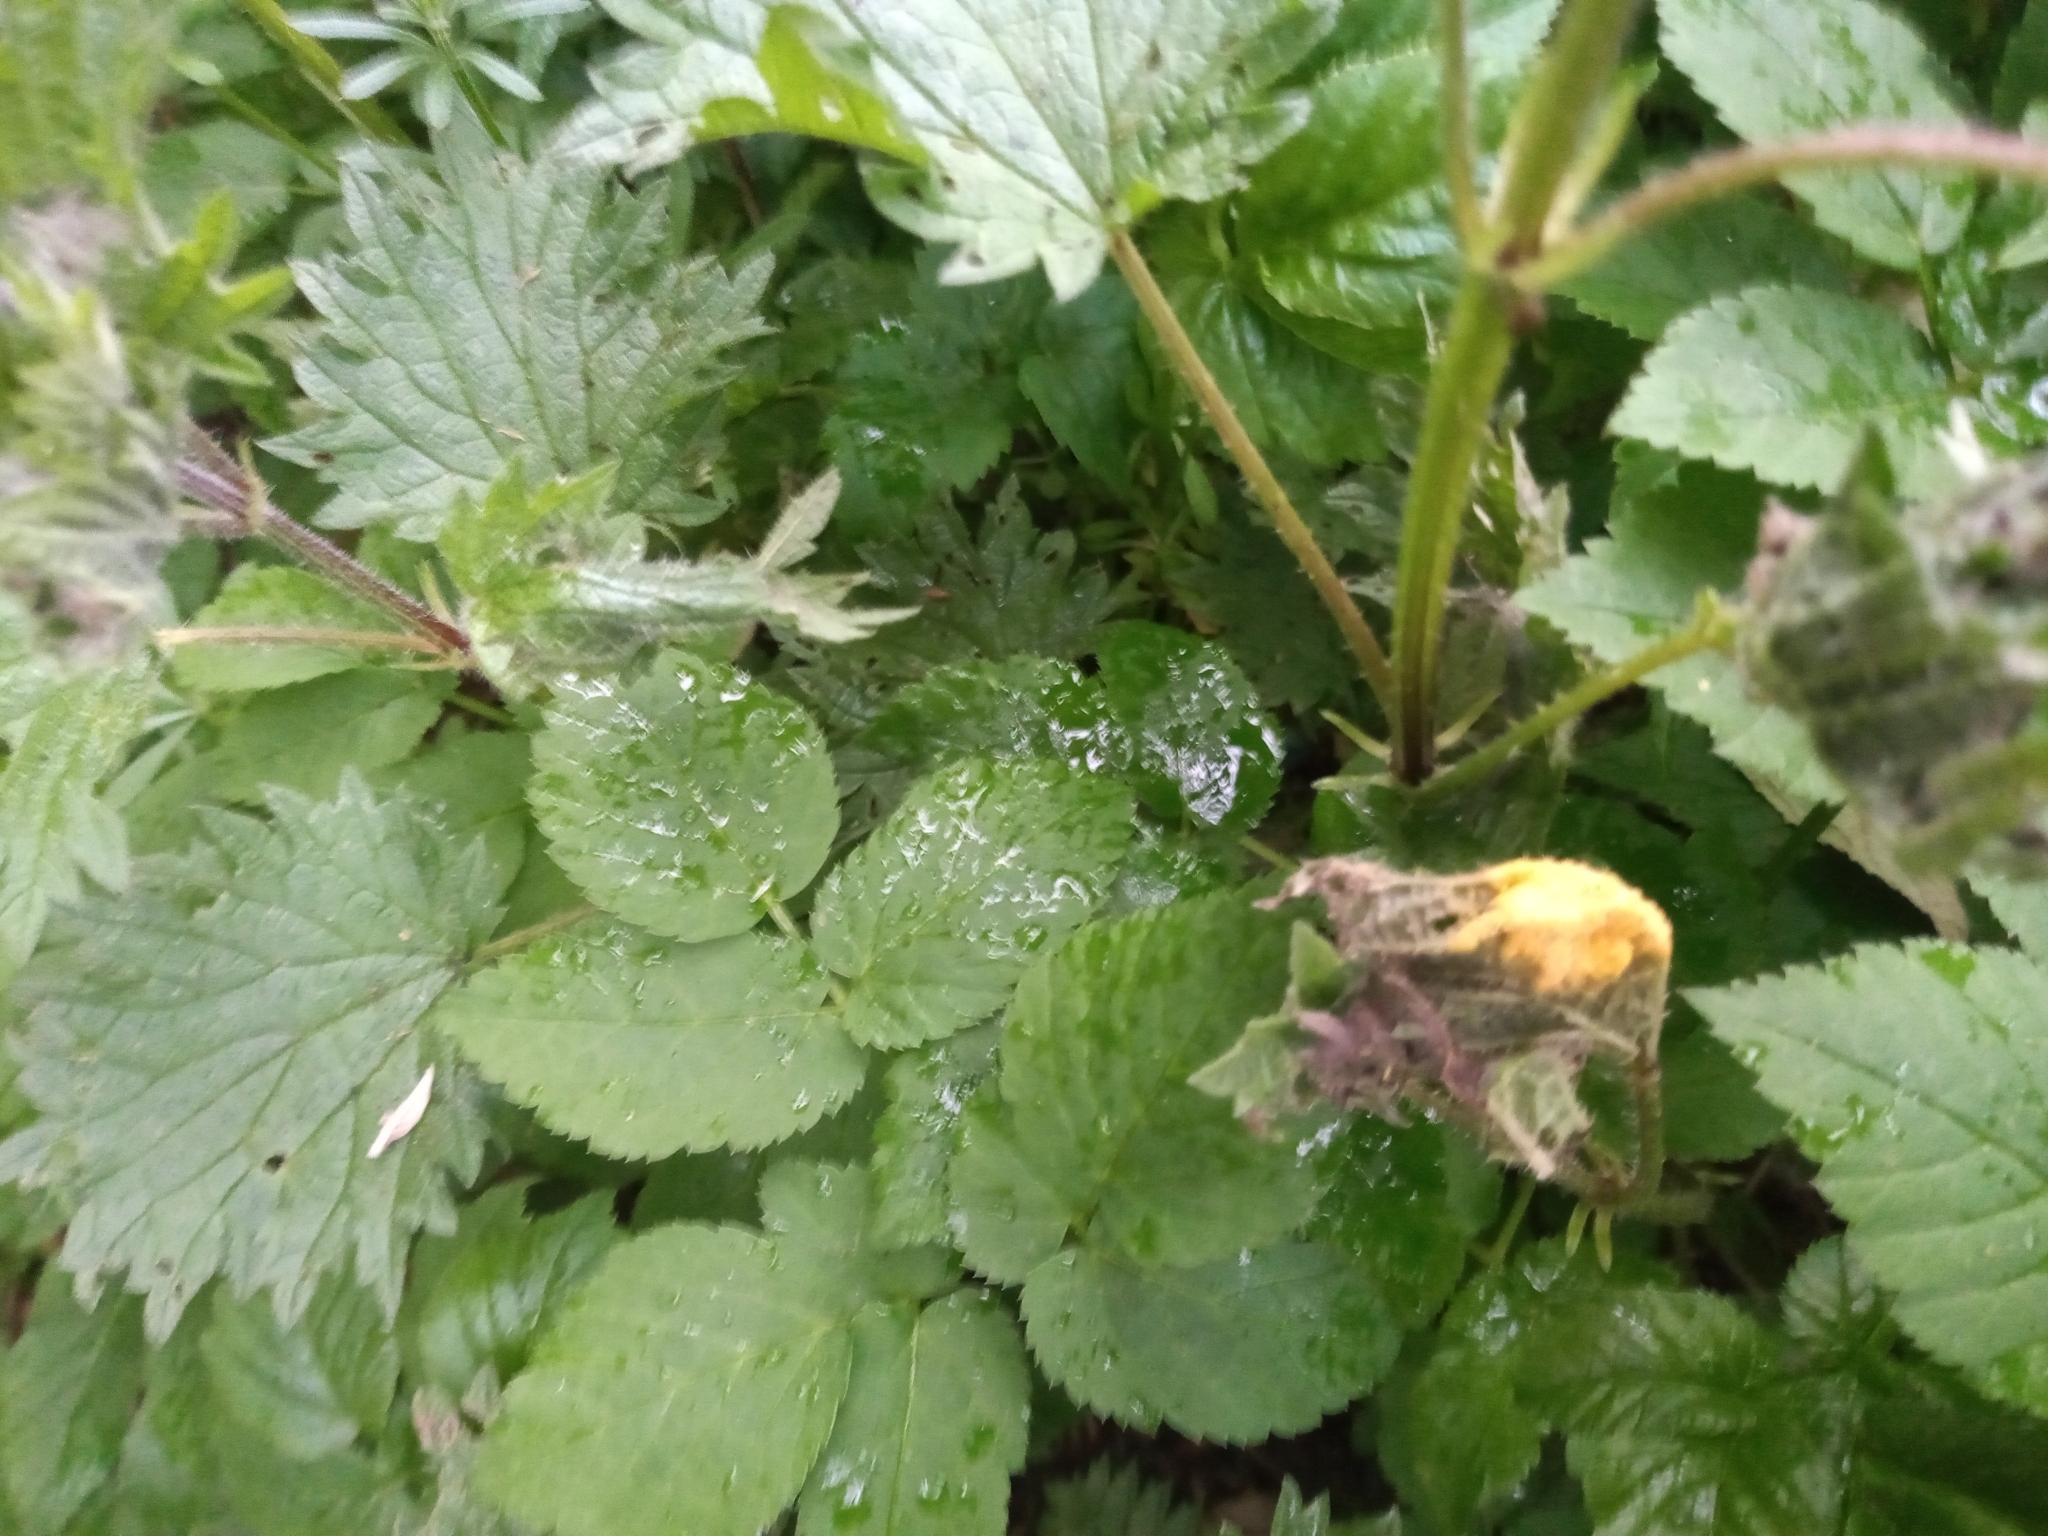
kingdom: Fungi
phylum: Basidiomycota
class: Pucciniomycetes
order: Pucciniales
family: Pucciniaceae
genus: Puccinia
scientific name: Puccinia urticata
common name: Nettle clustercup rust fungus
